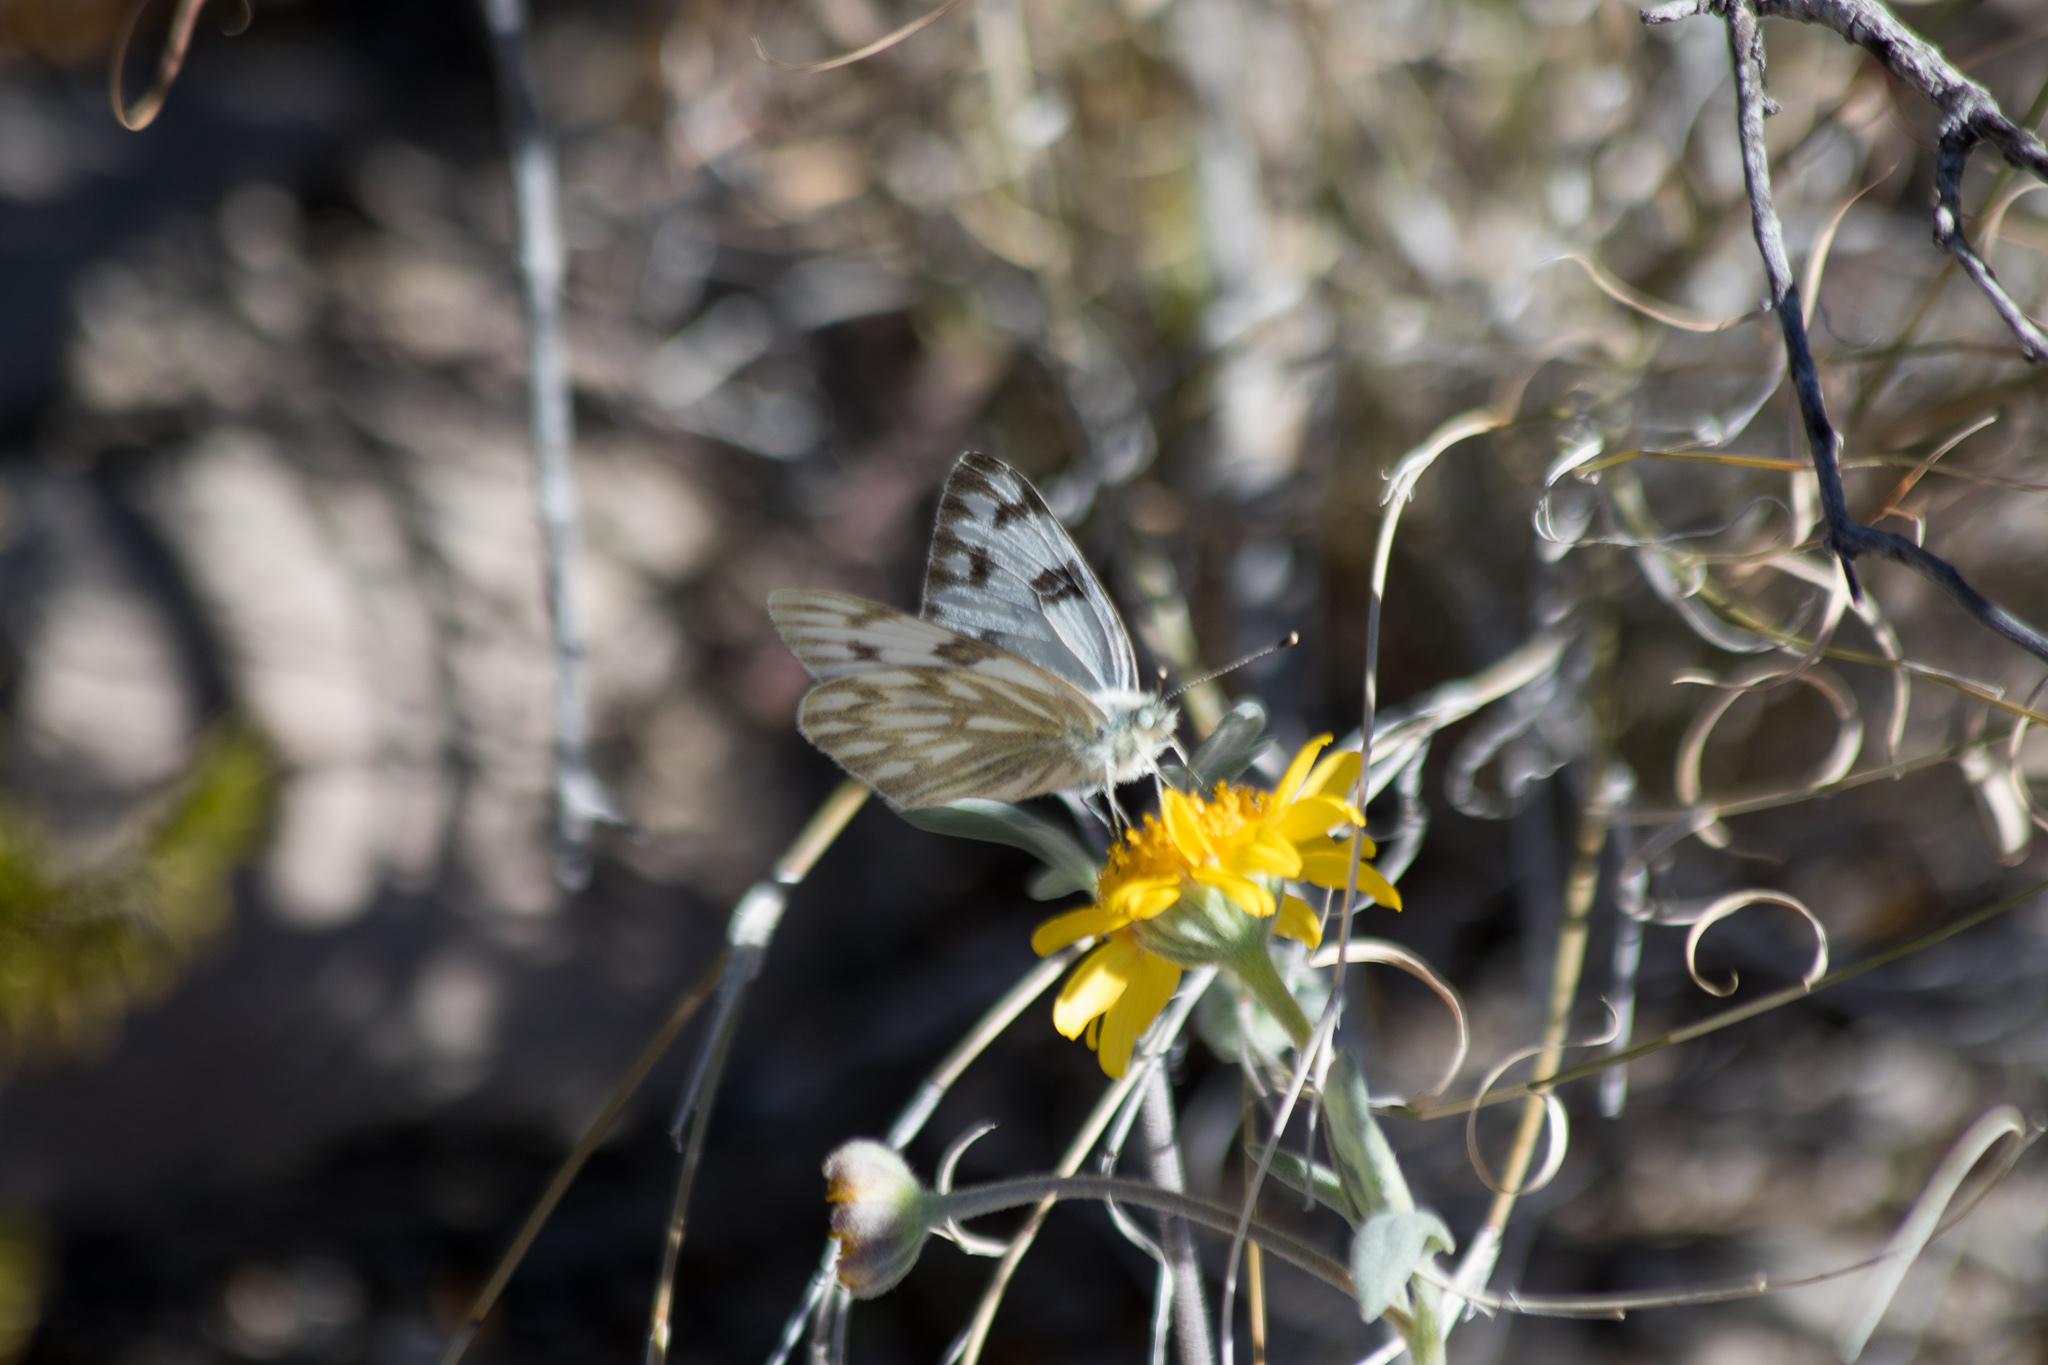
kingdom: Animalia
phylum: Arthropoda
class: Insecta
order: Lepidoptera
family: Pieridae
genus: Pontia
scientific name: Pontia protodice
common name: Checkered white
